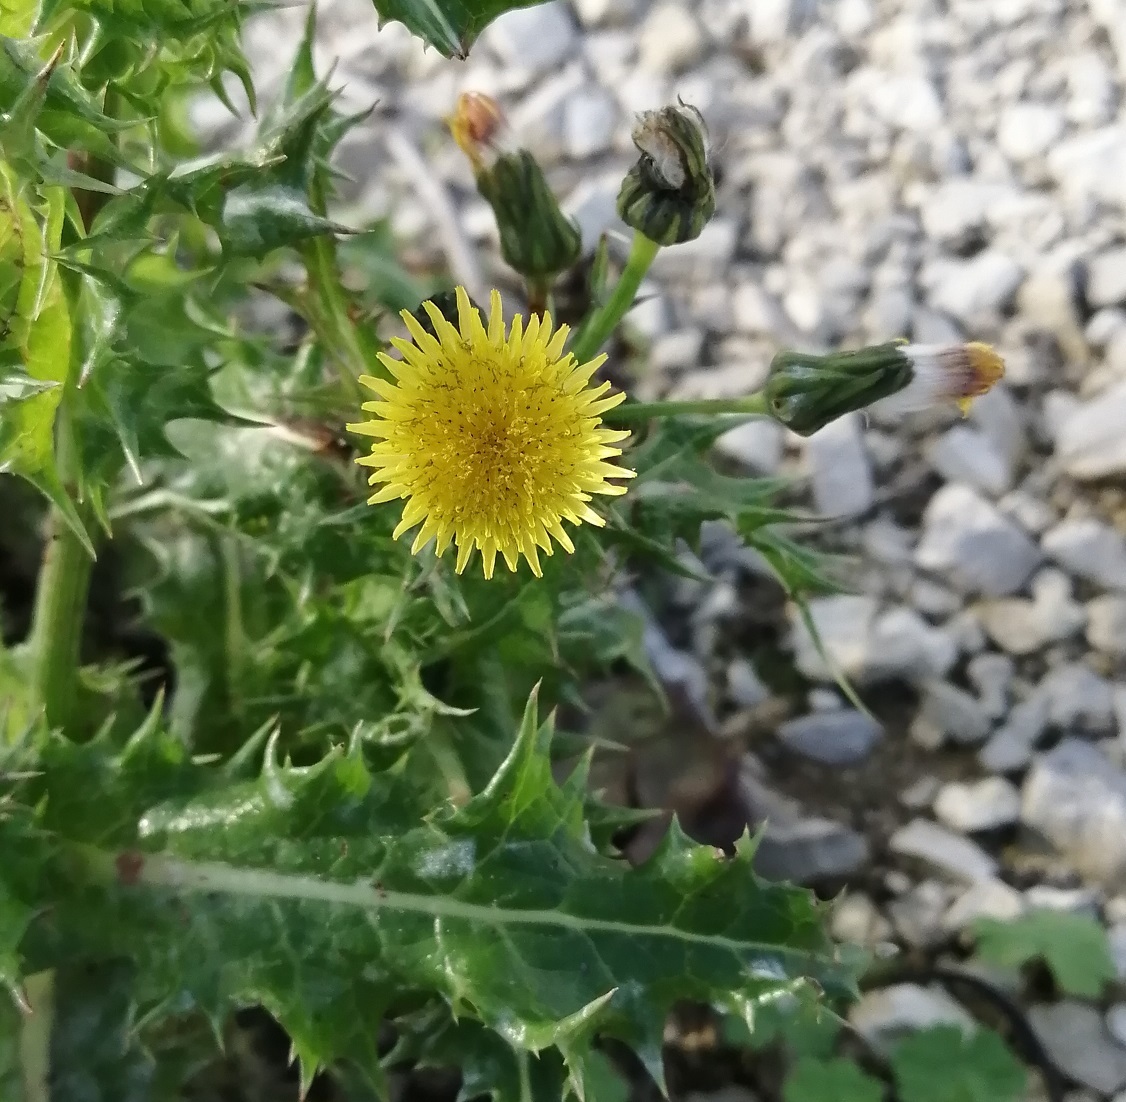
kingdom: Plantae
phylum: Tracheophyta
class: Magnoliopsida
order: Asterales
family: Asteraceae
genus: Sonchus
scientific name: Sonchus asper
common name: Prickly sow-thistle
